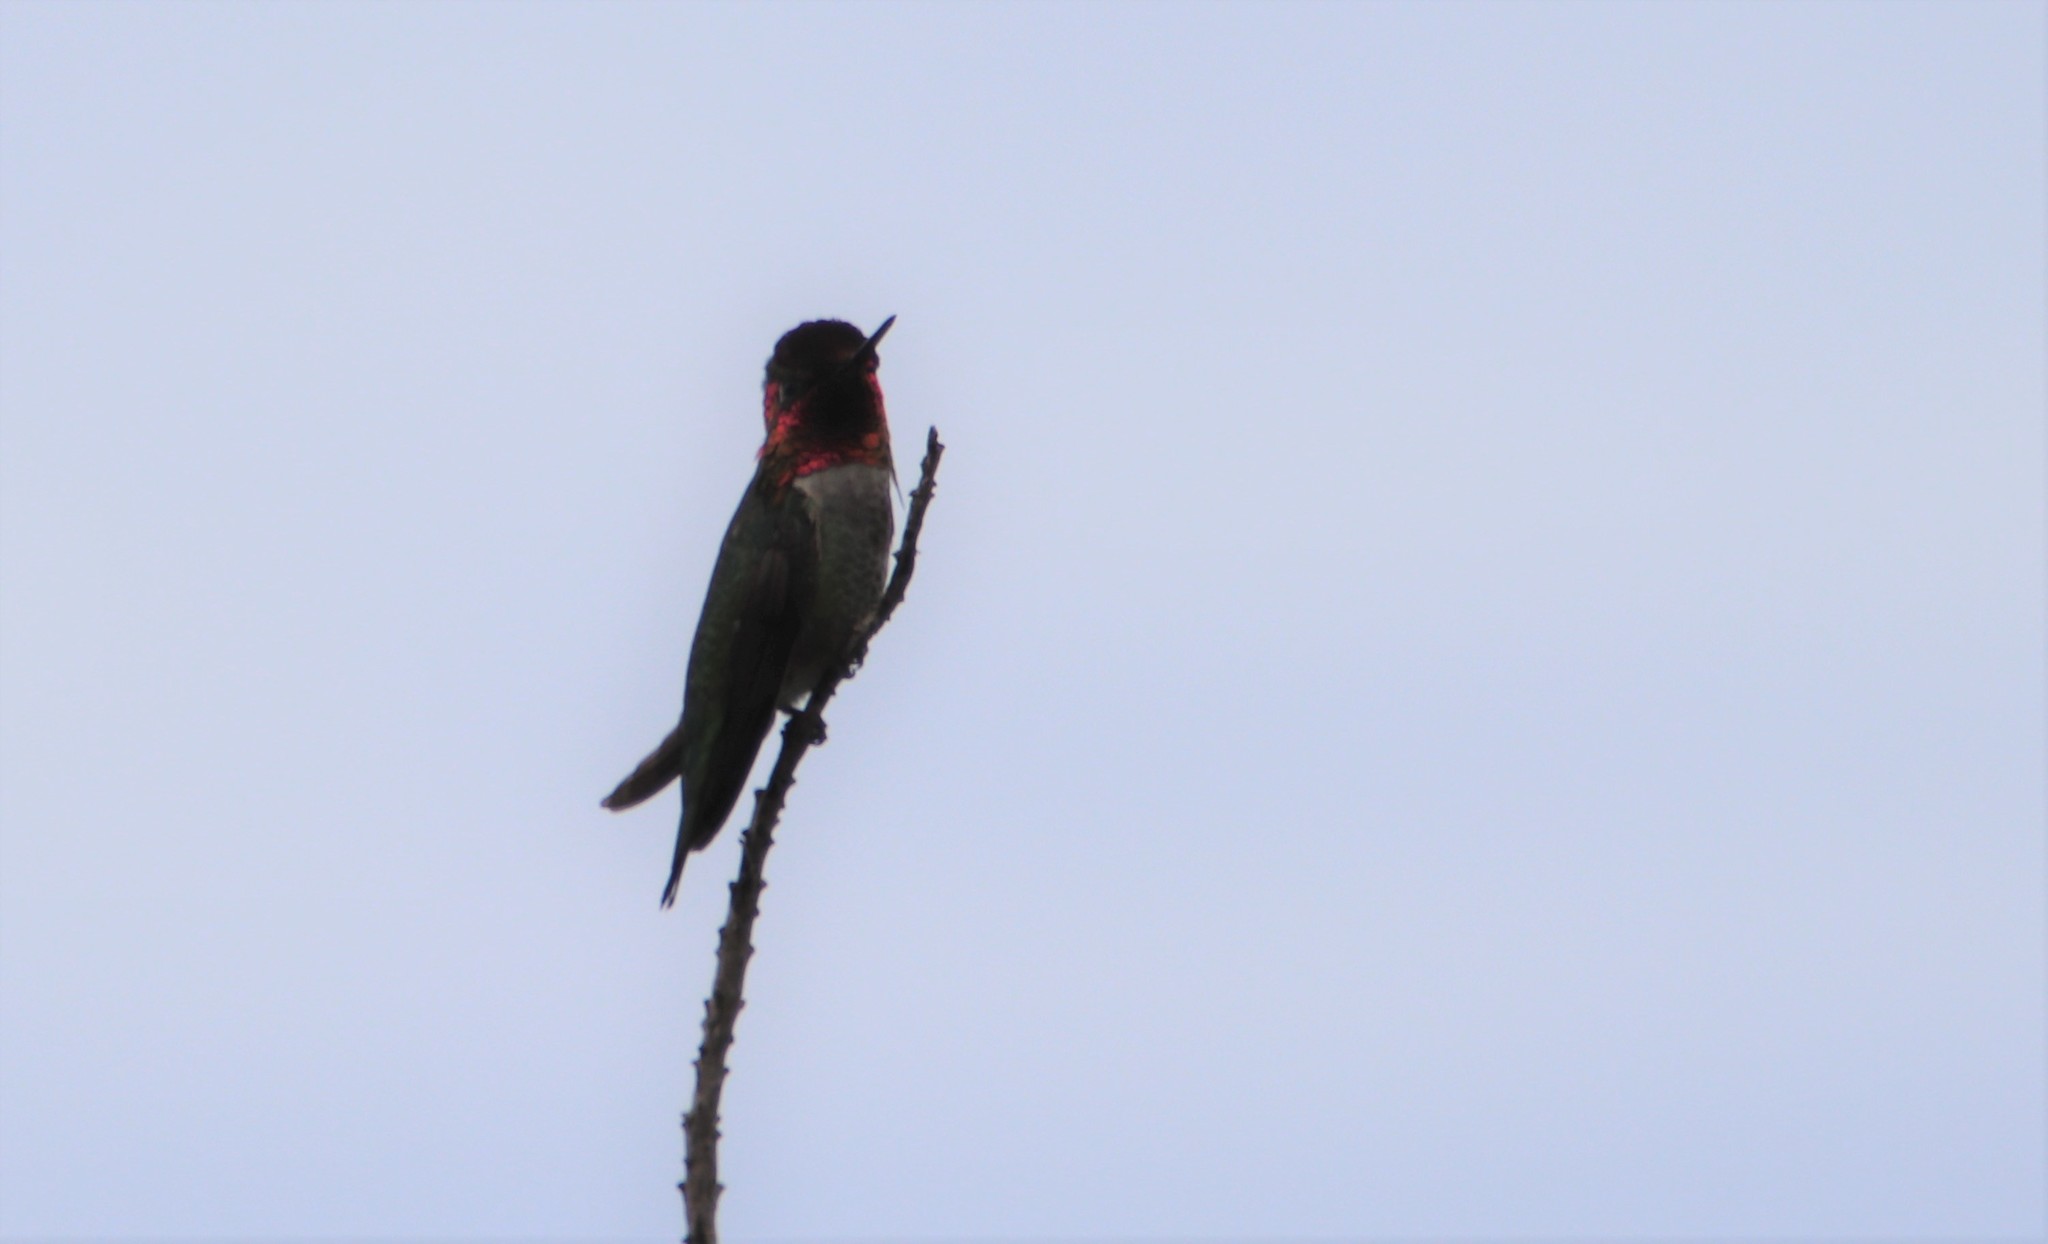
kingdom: Animalia
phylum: Chordata
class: Aves
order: Apodiformes
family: Trochilidae
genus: Calypte
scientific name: Calypte anna
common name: Anna's hummingbird
